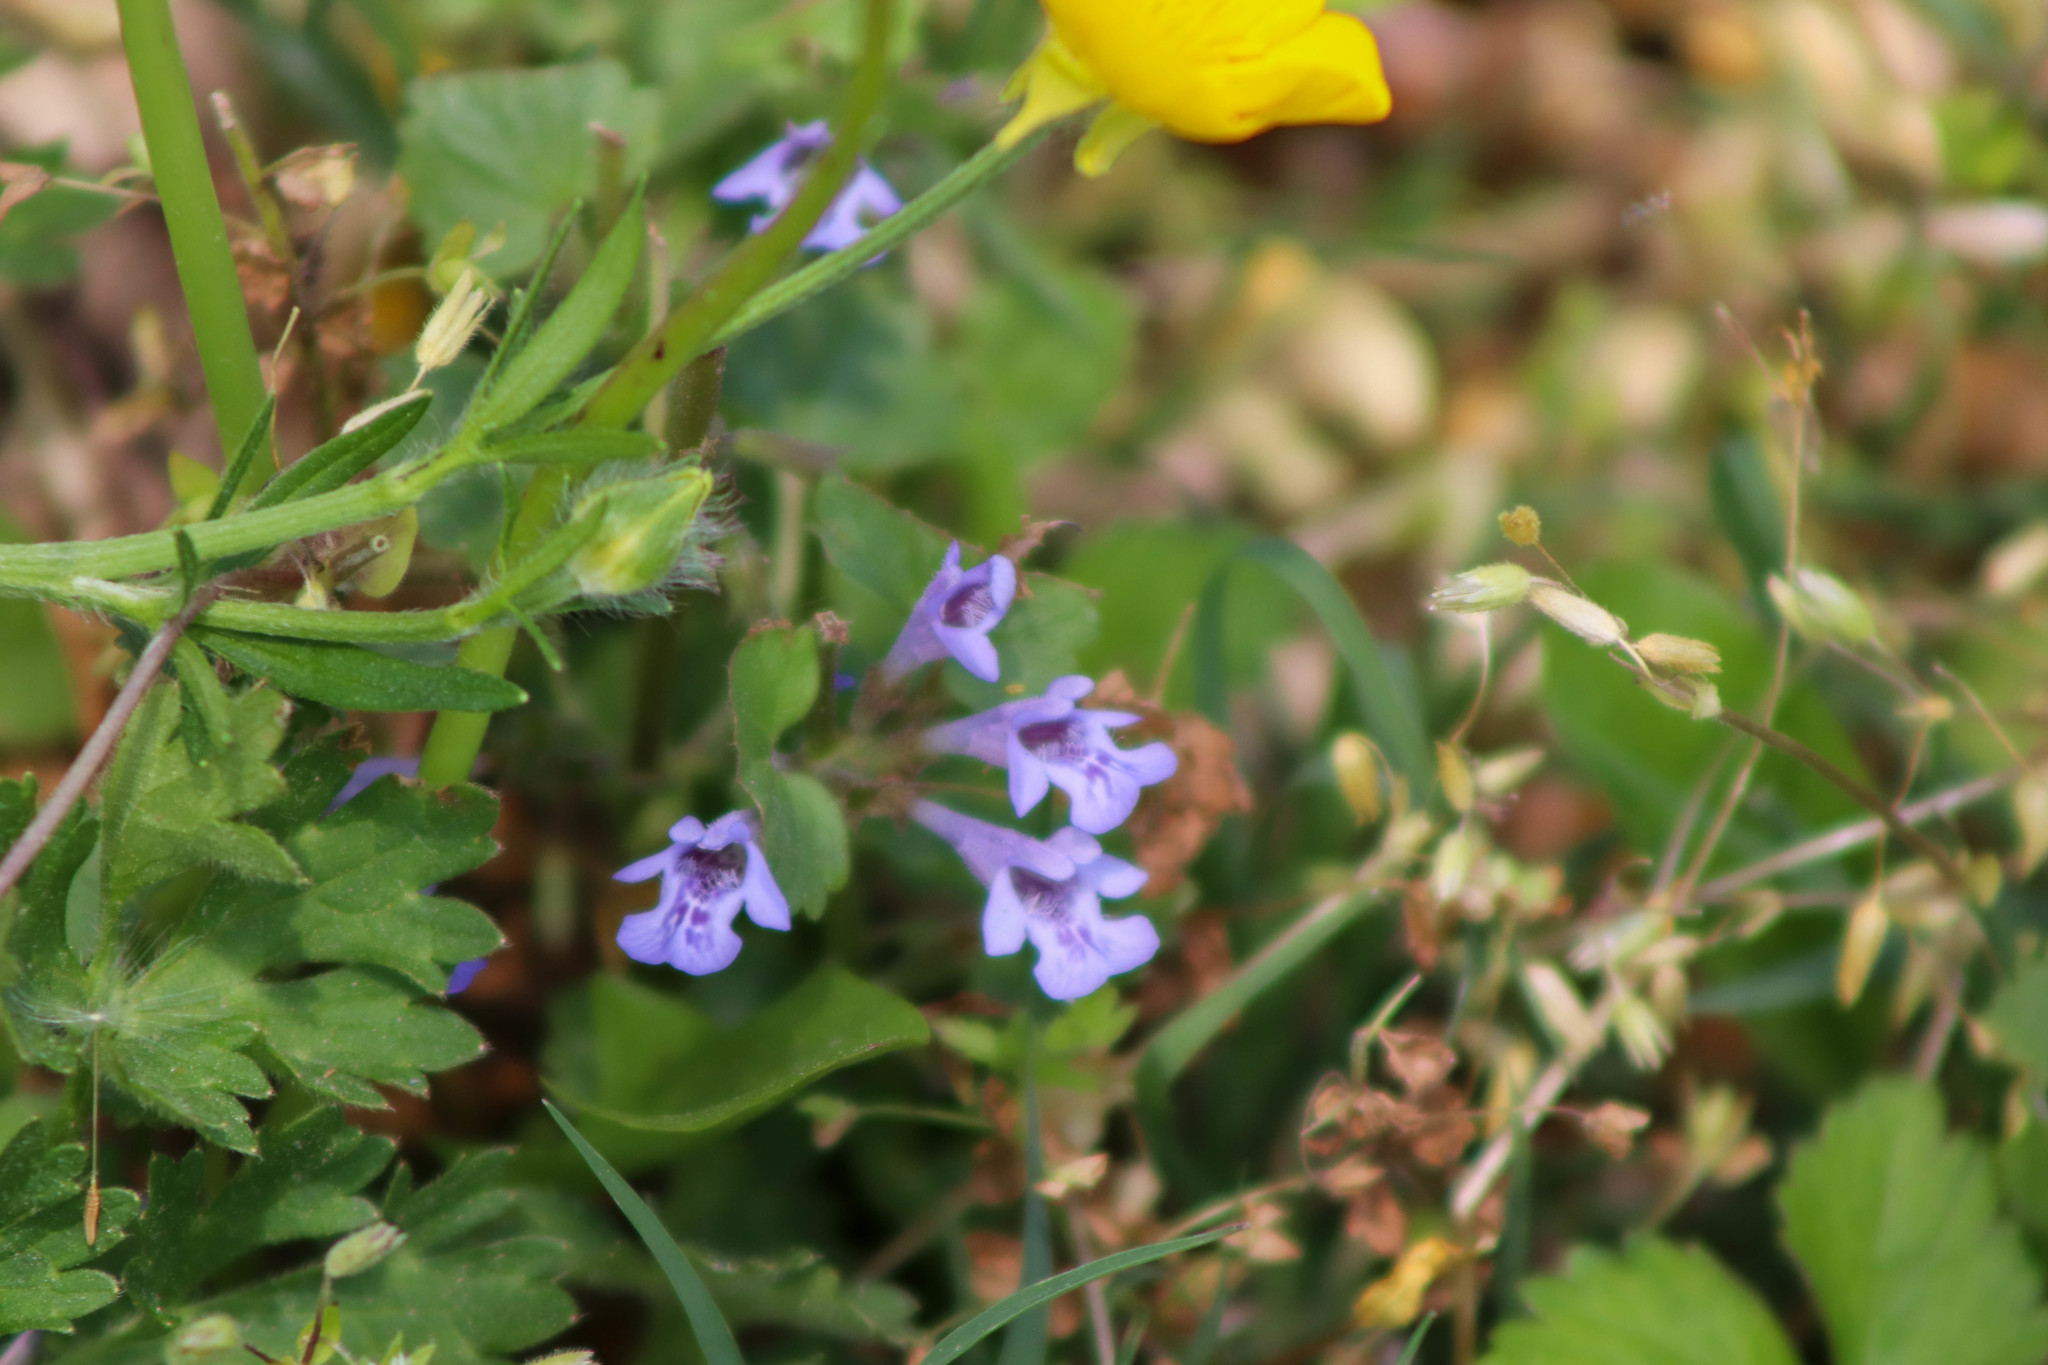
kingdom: Plantae
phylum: Tracheophyta
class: Magnoliopsida
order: Lamiales
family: Lamiaceae
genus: Glechoma
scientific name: Glechoma hederacea
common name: Ground ivy
